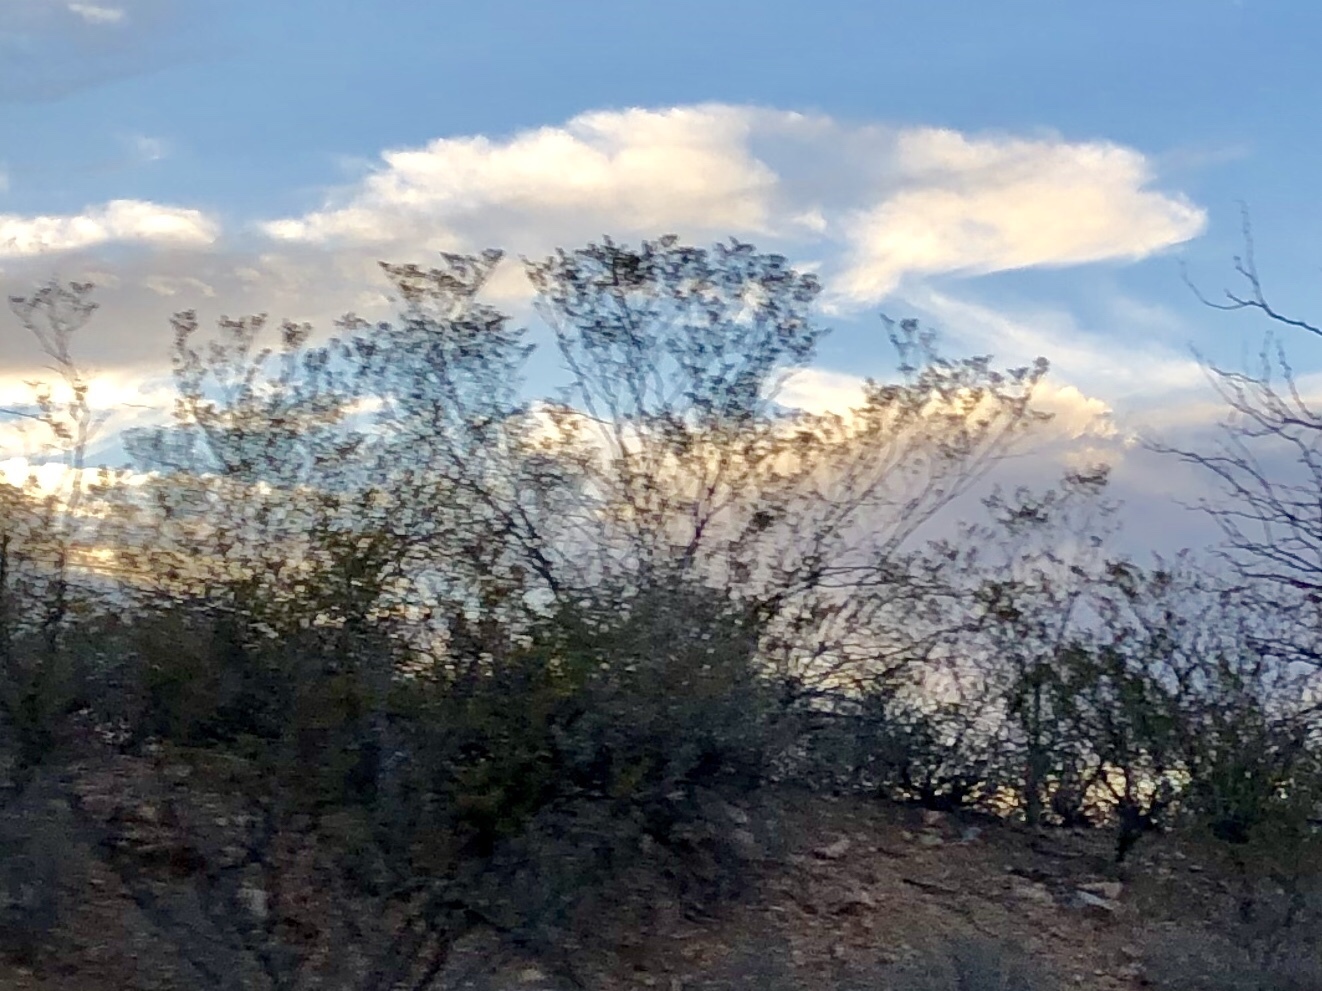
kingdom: Plantae
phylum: Tracheophyta
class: Magnoliopsida
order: Zygophyllales
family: Zygophyllaceae
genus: Larrea
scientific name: Larrea tridentata
